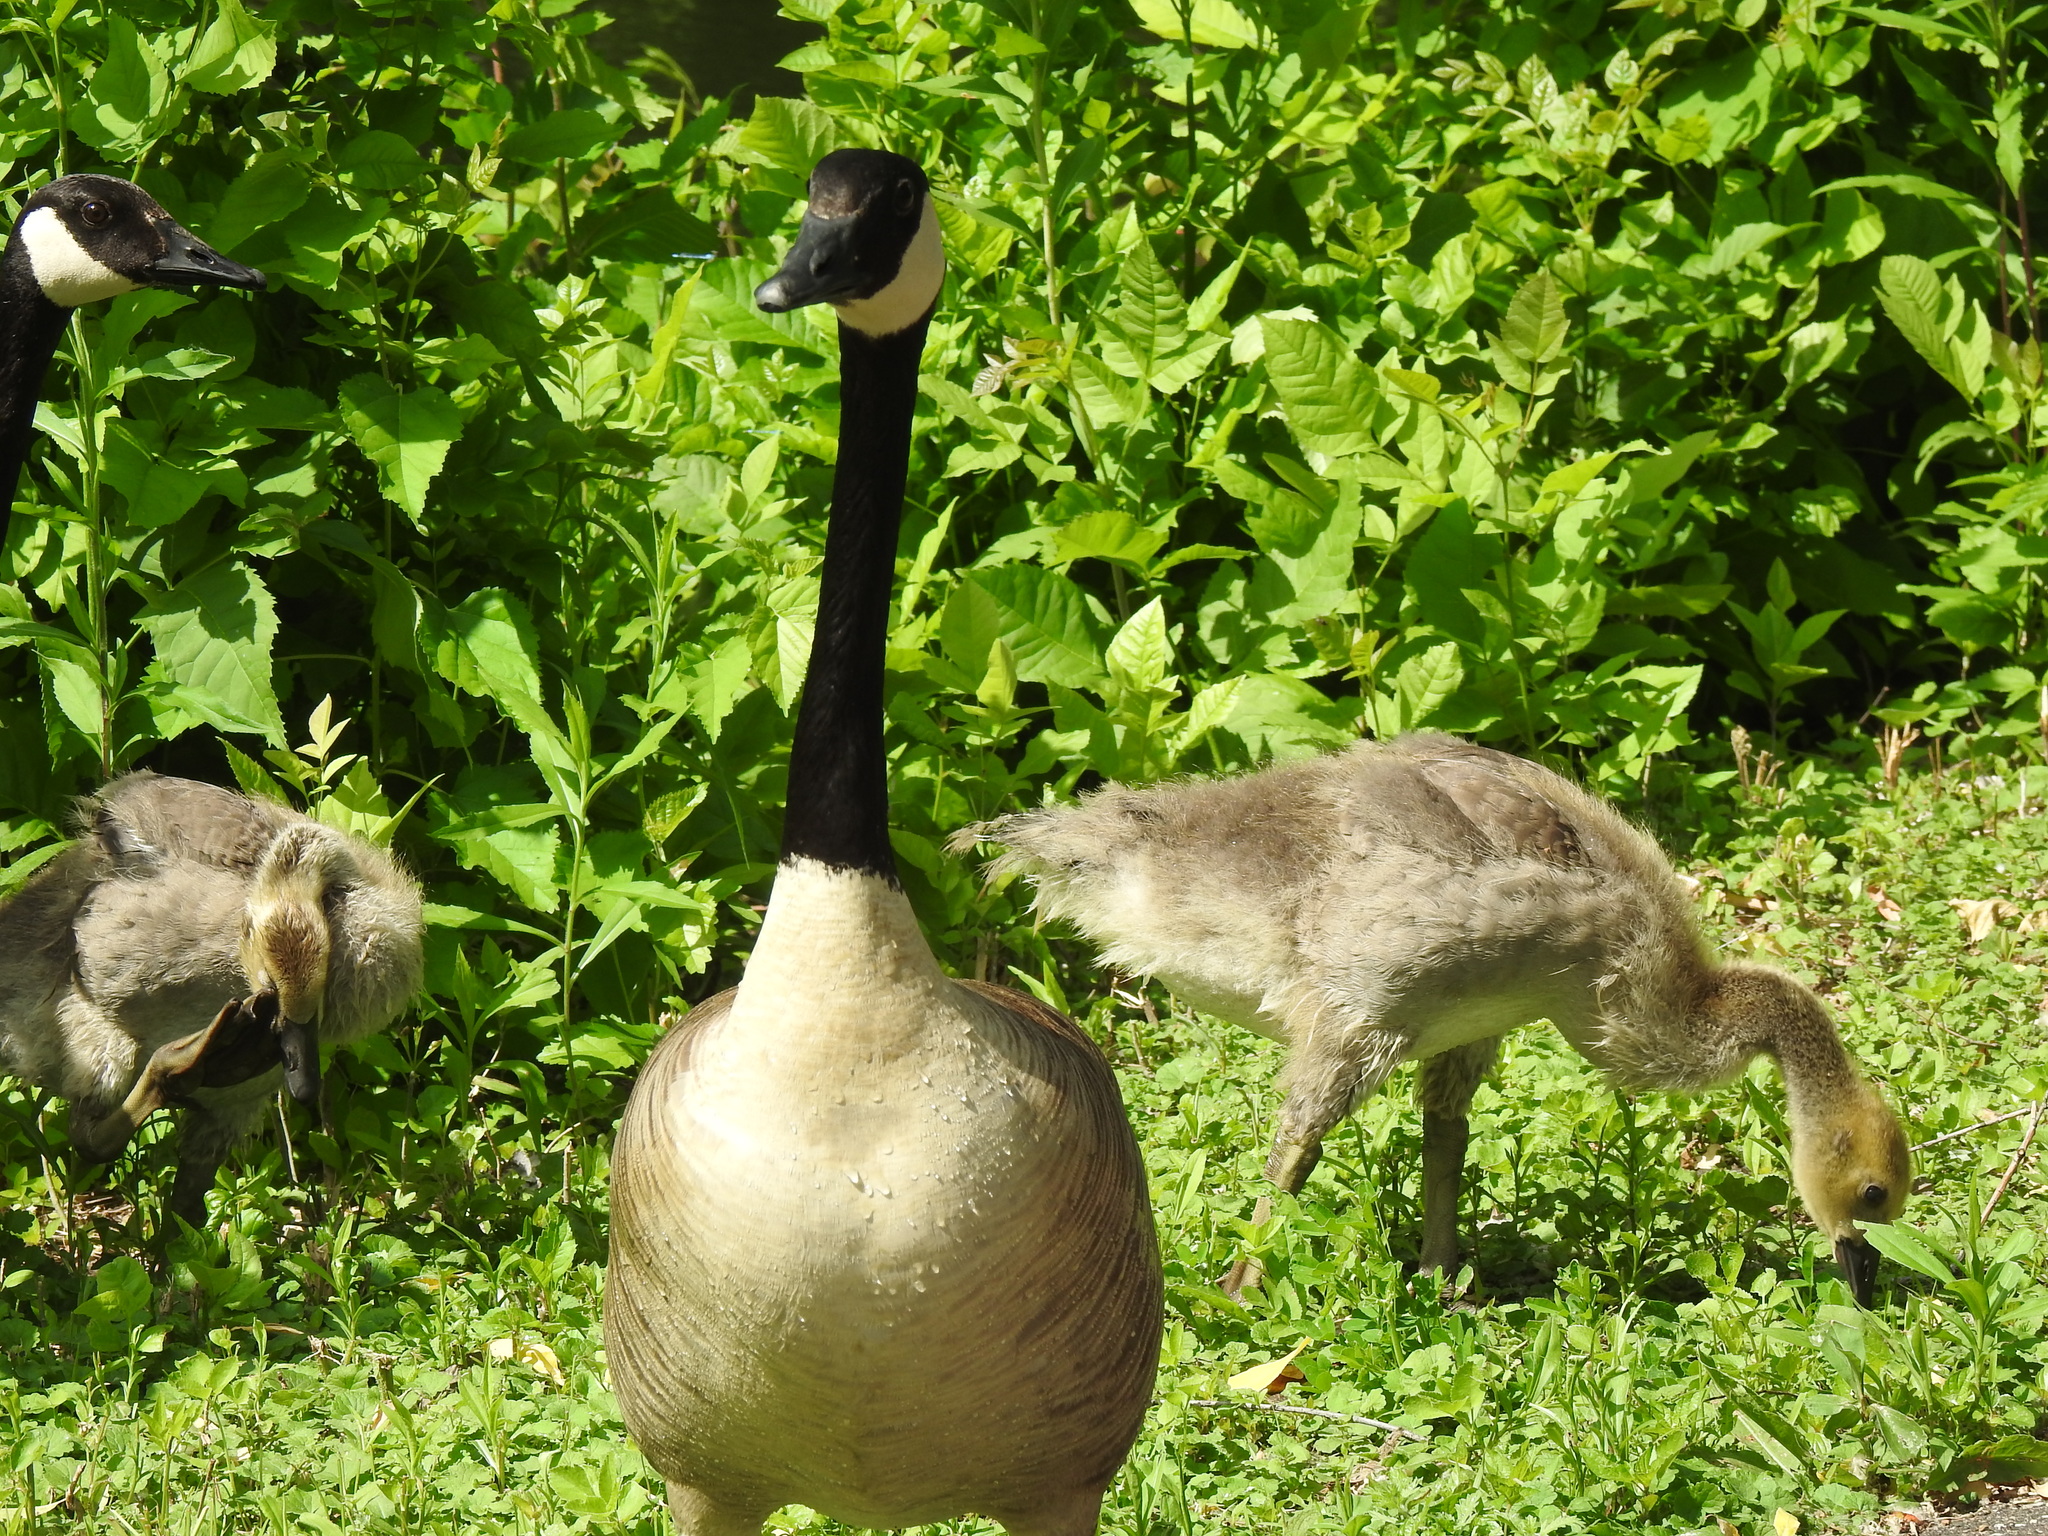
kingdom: Animalia
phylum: Chordata
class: Aves
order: Anseriformes
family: Anatidae
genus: Branta
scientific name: Branta canadensis
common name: Canada goose
